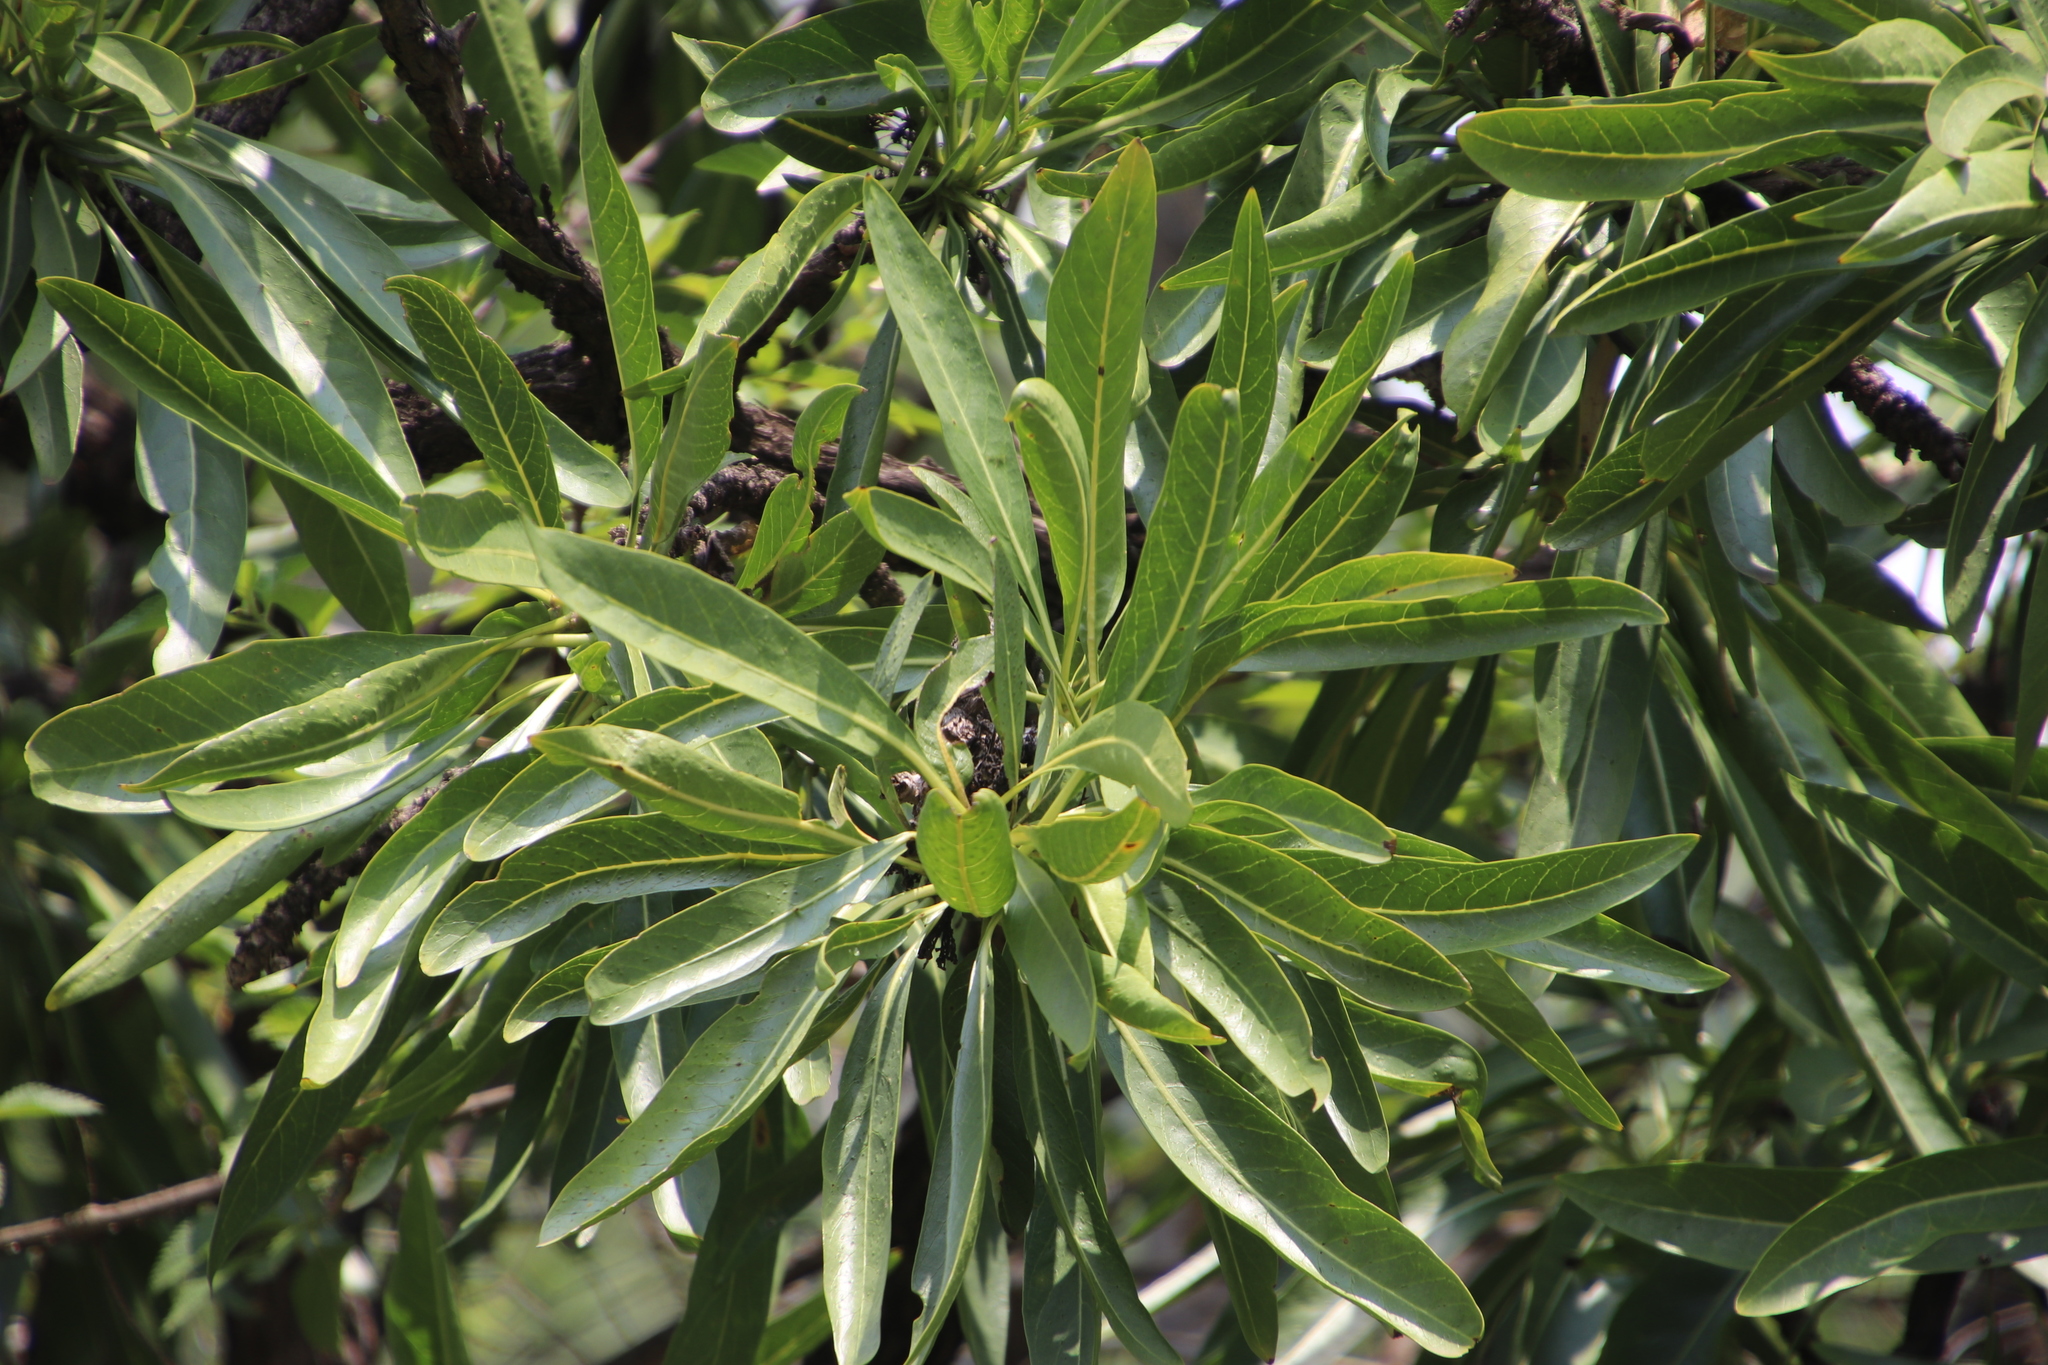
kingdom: Plantae
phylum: Tracheophyta
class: Magnoliopsida
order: Gentianales
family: Rubiaceae
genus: Pavetta
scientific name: Pavetta edentula
